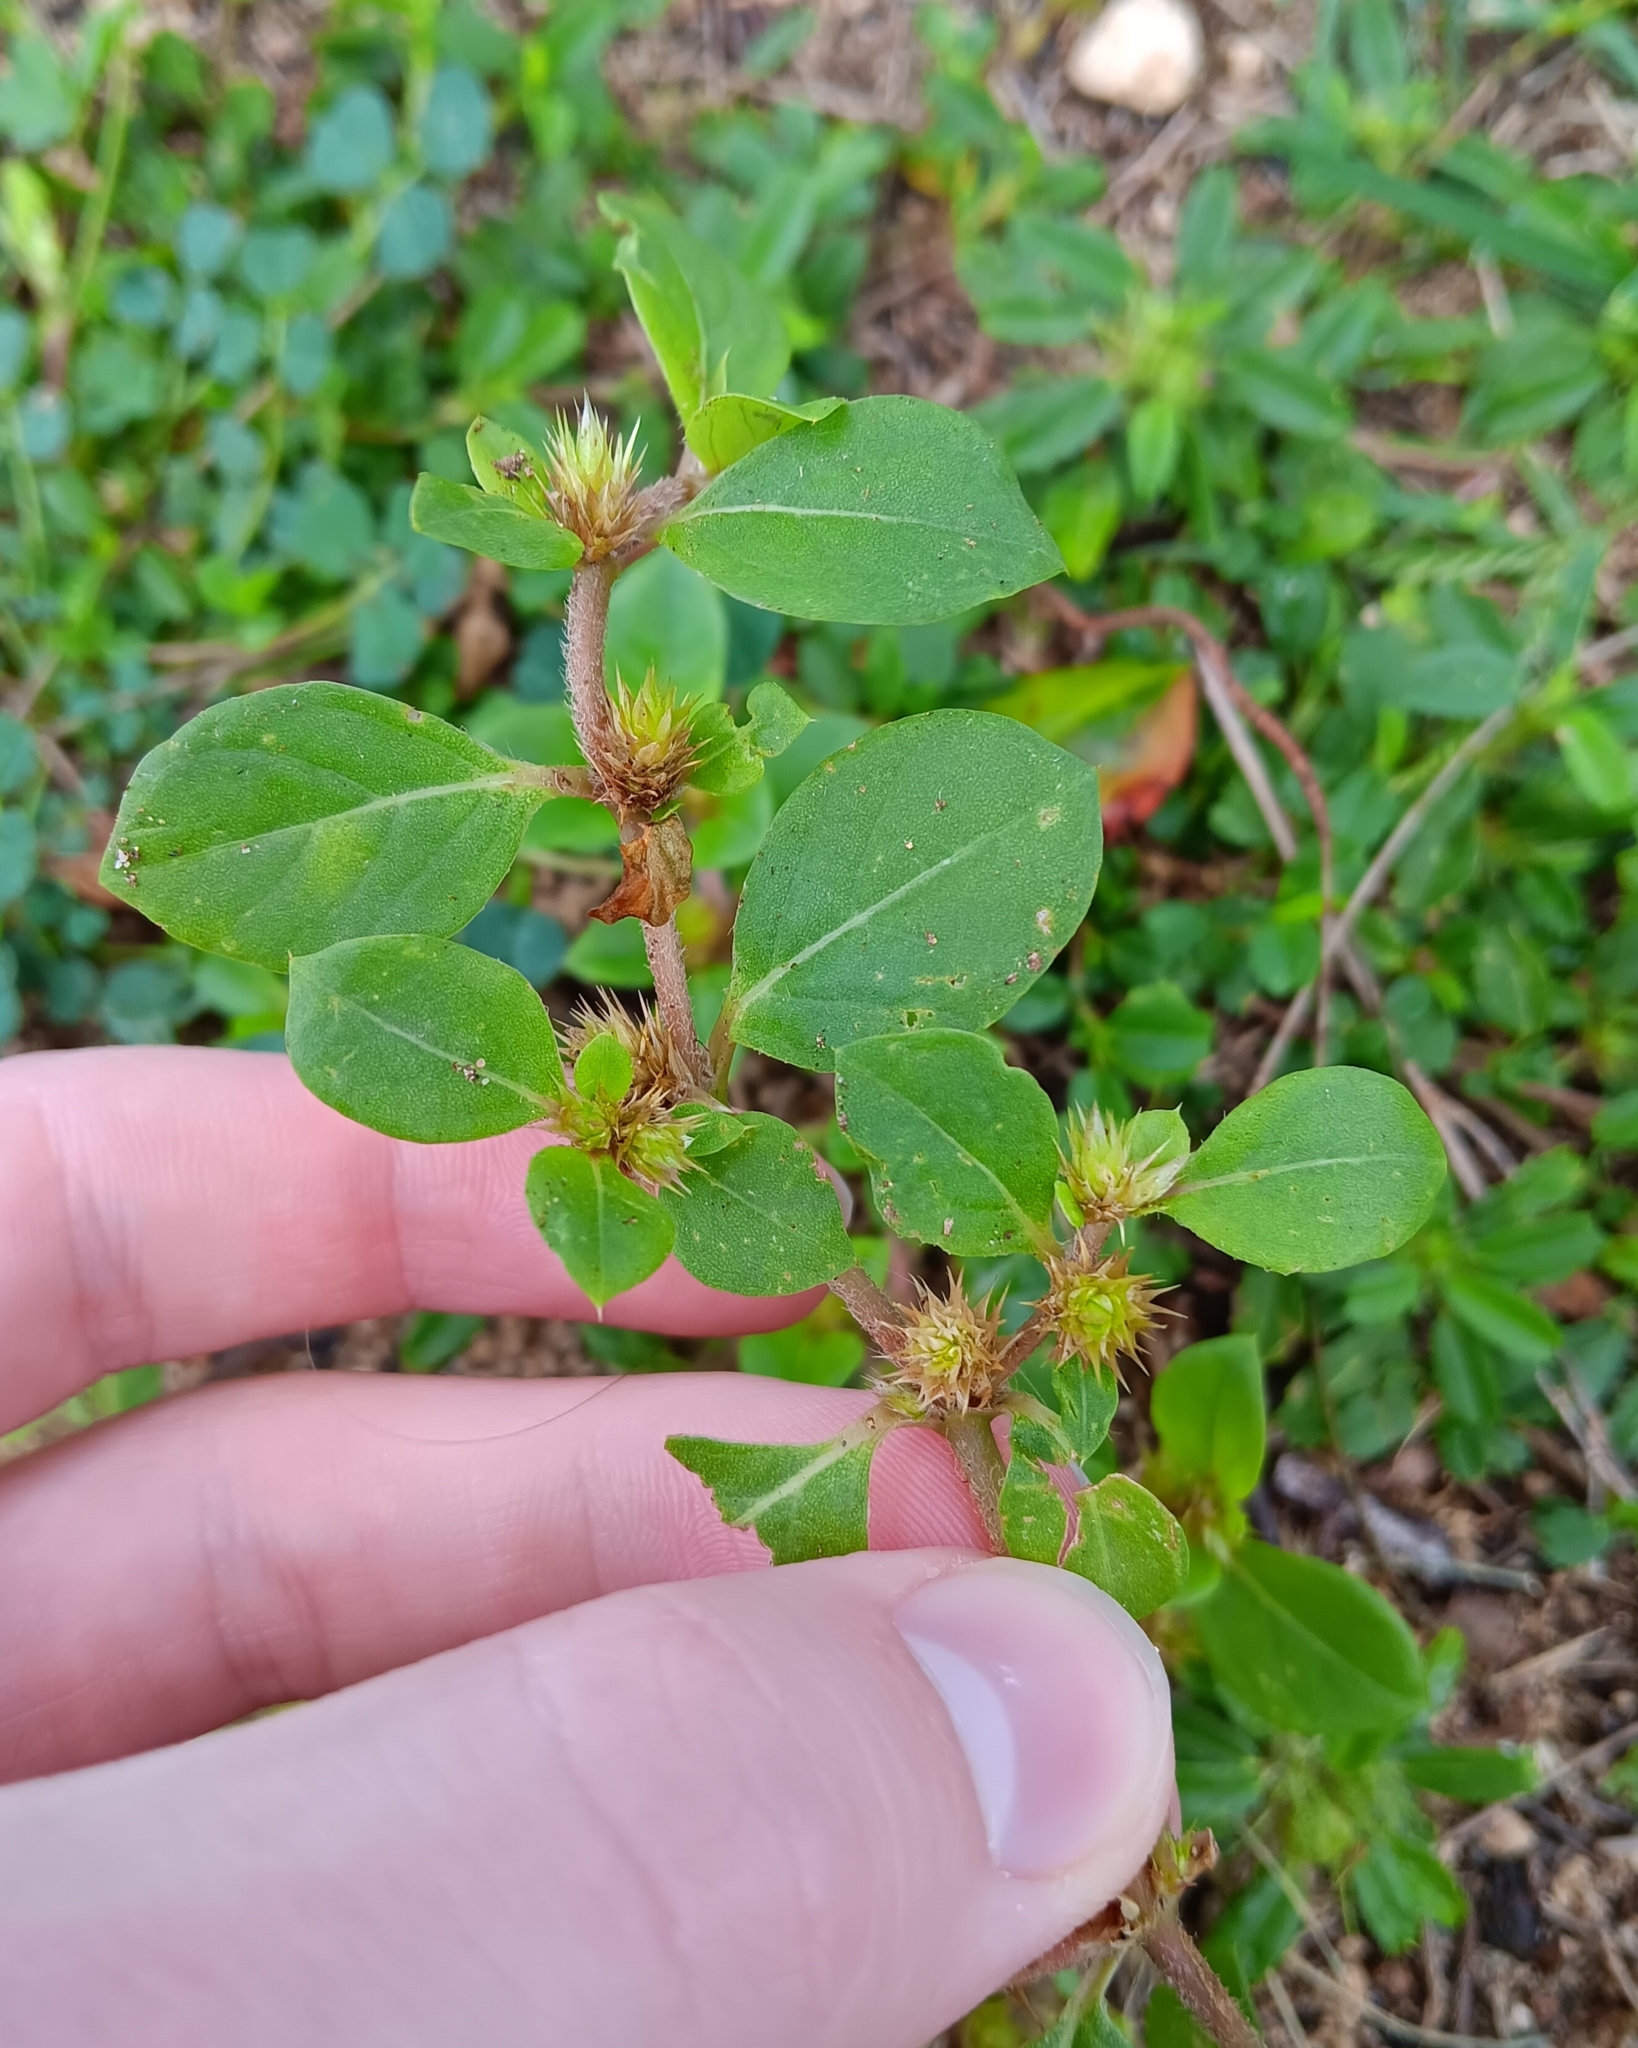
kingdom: Plantae
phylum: Tracheophyta
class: Magnoliopsida
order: Caryophyllales
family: Amaranthaceae
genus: Alternanthera
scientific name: Alternanthera pungens
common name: Khakiweed
